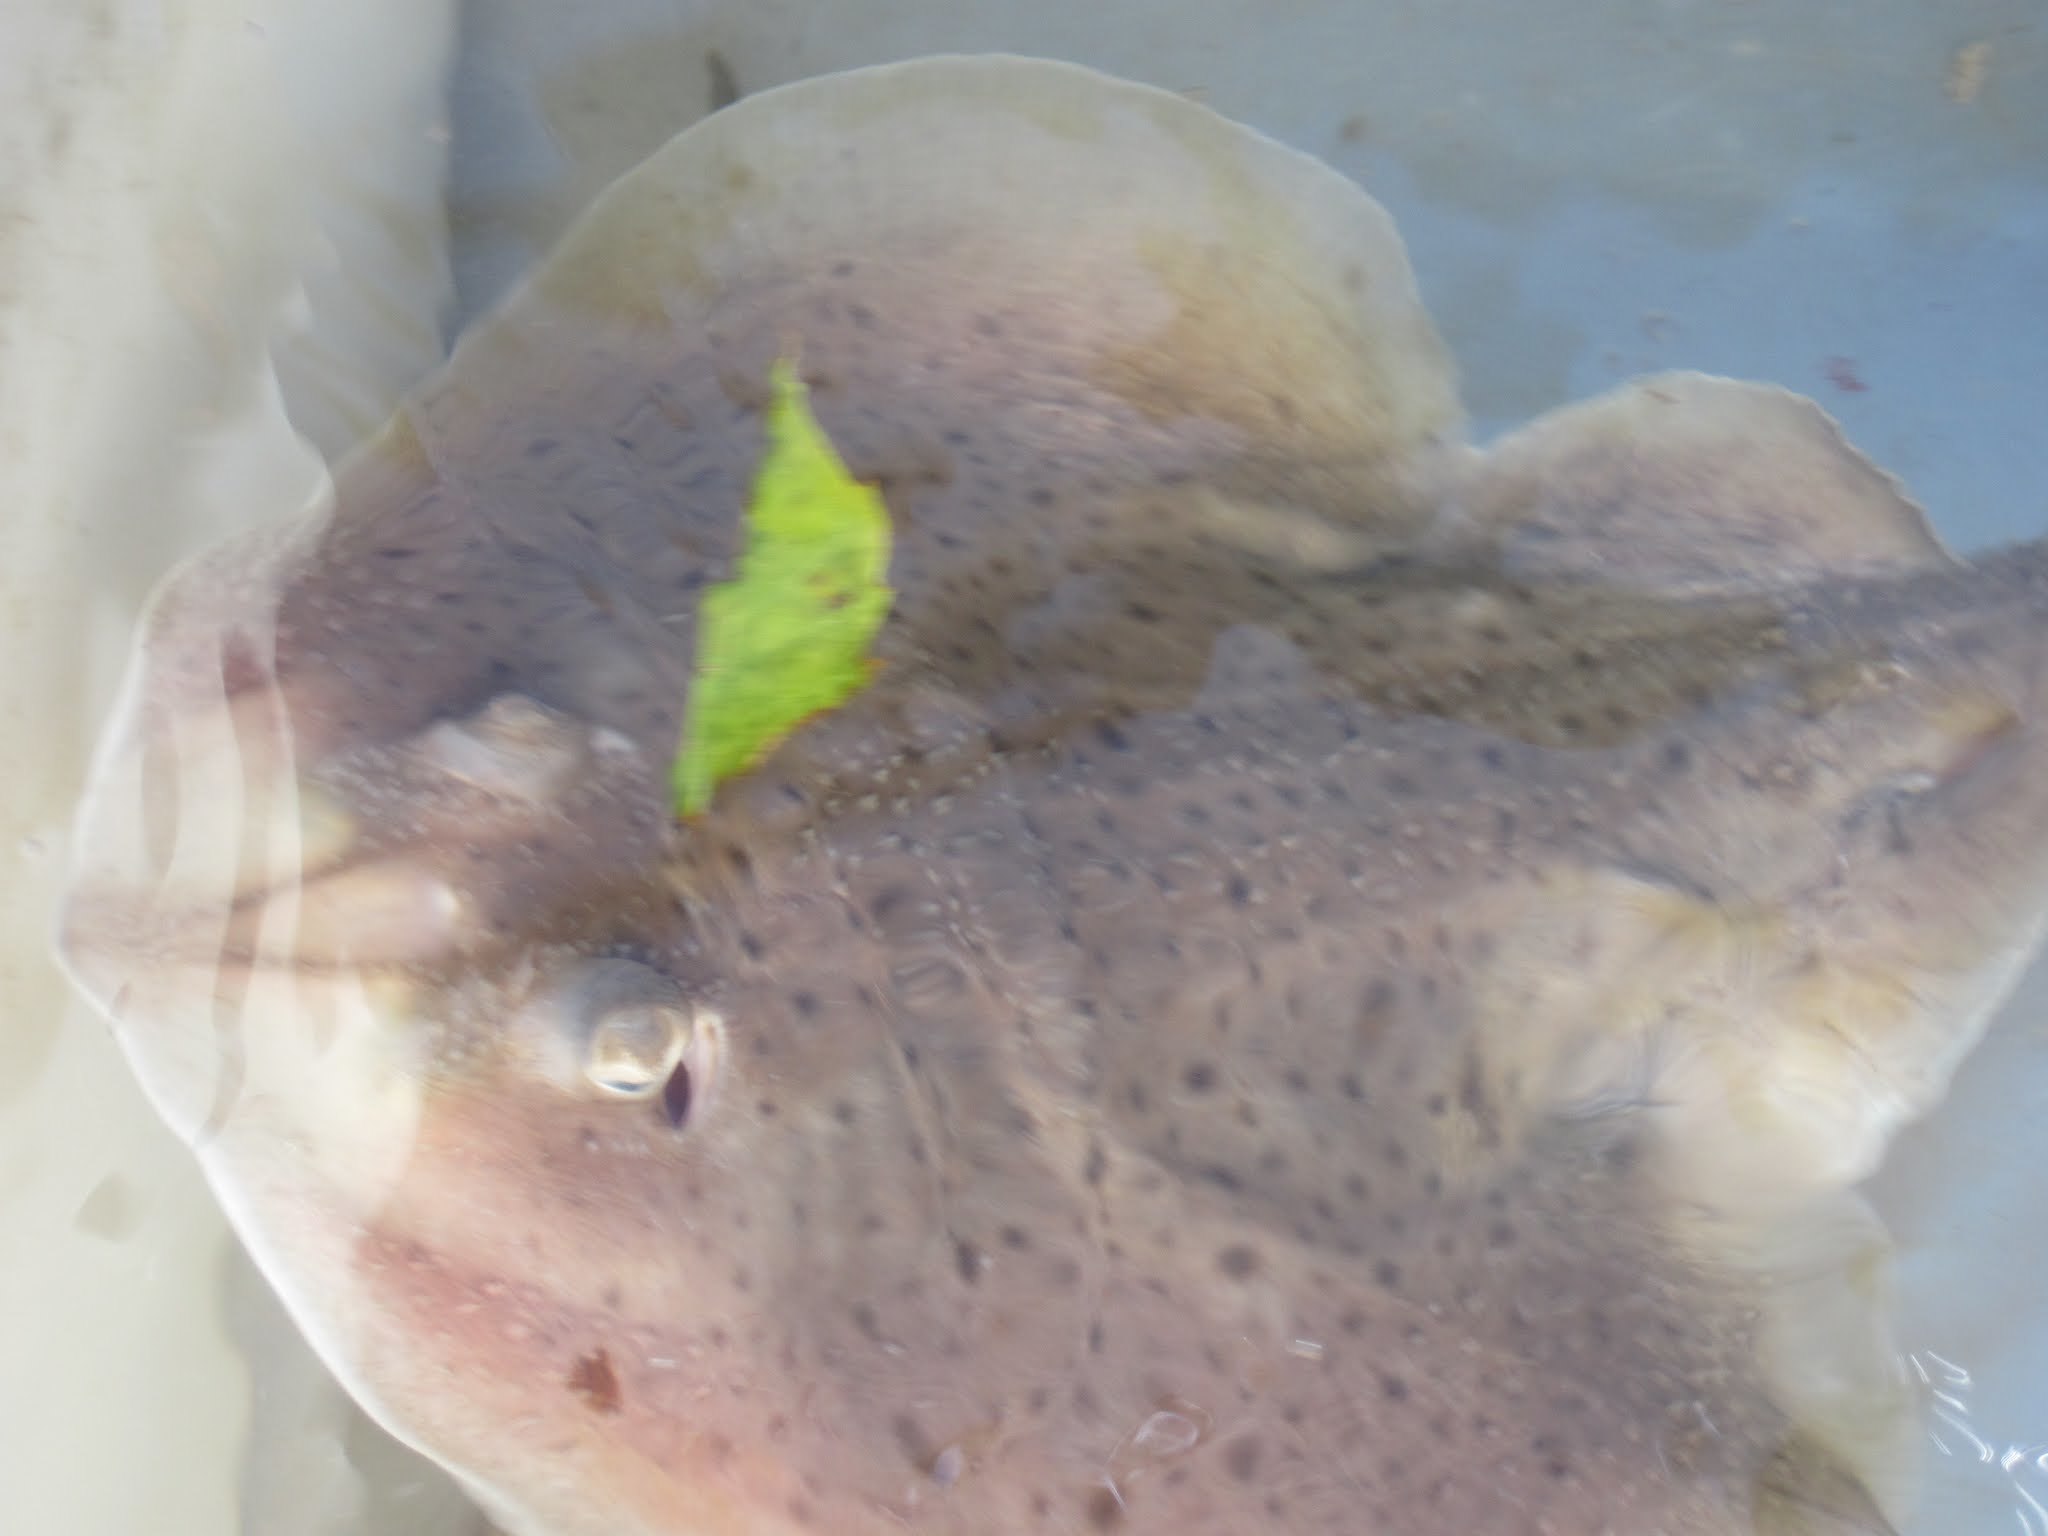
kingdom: Animalia
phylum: Chordata
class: Elasmobranchii
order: Rajiformes
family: Rajidae
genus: Leucoraja
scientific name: Leucoraja erinacea
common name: Little skate
